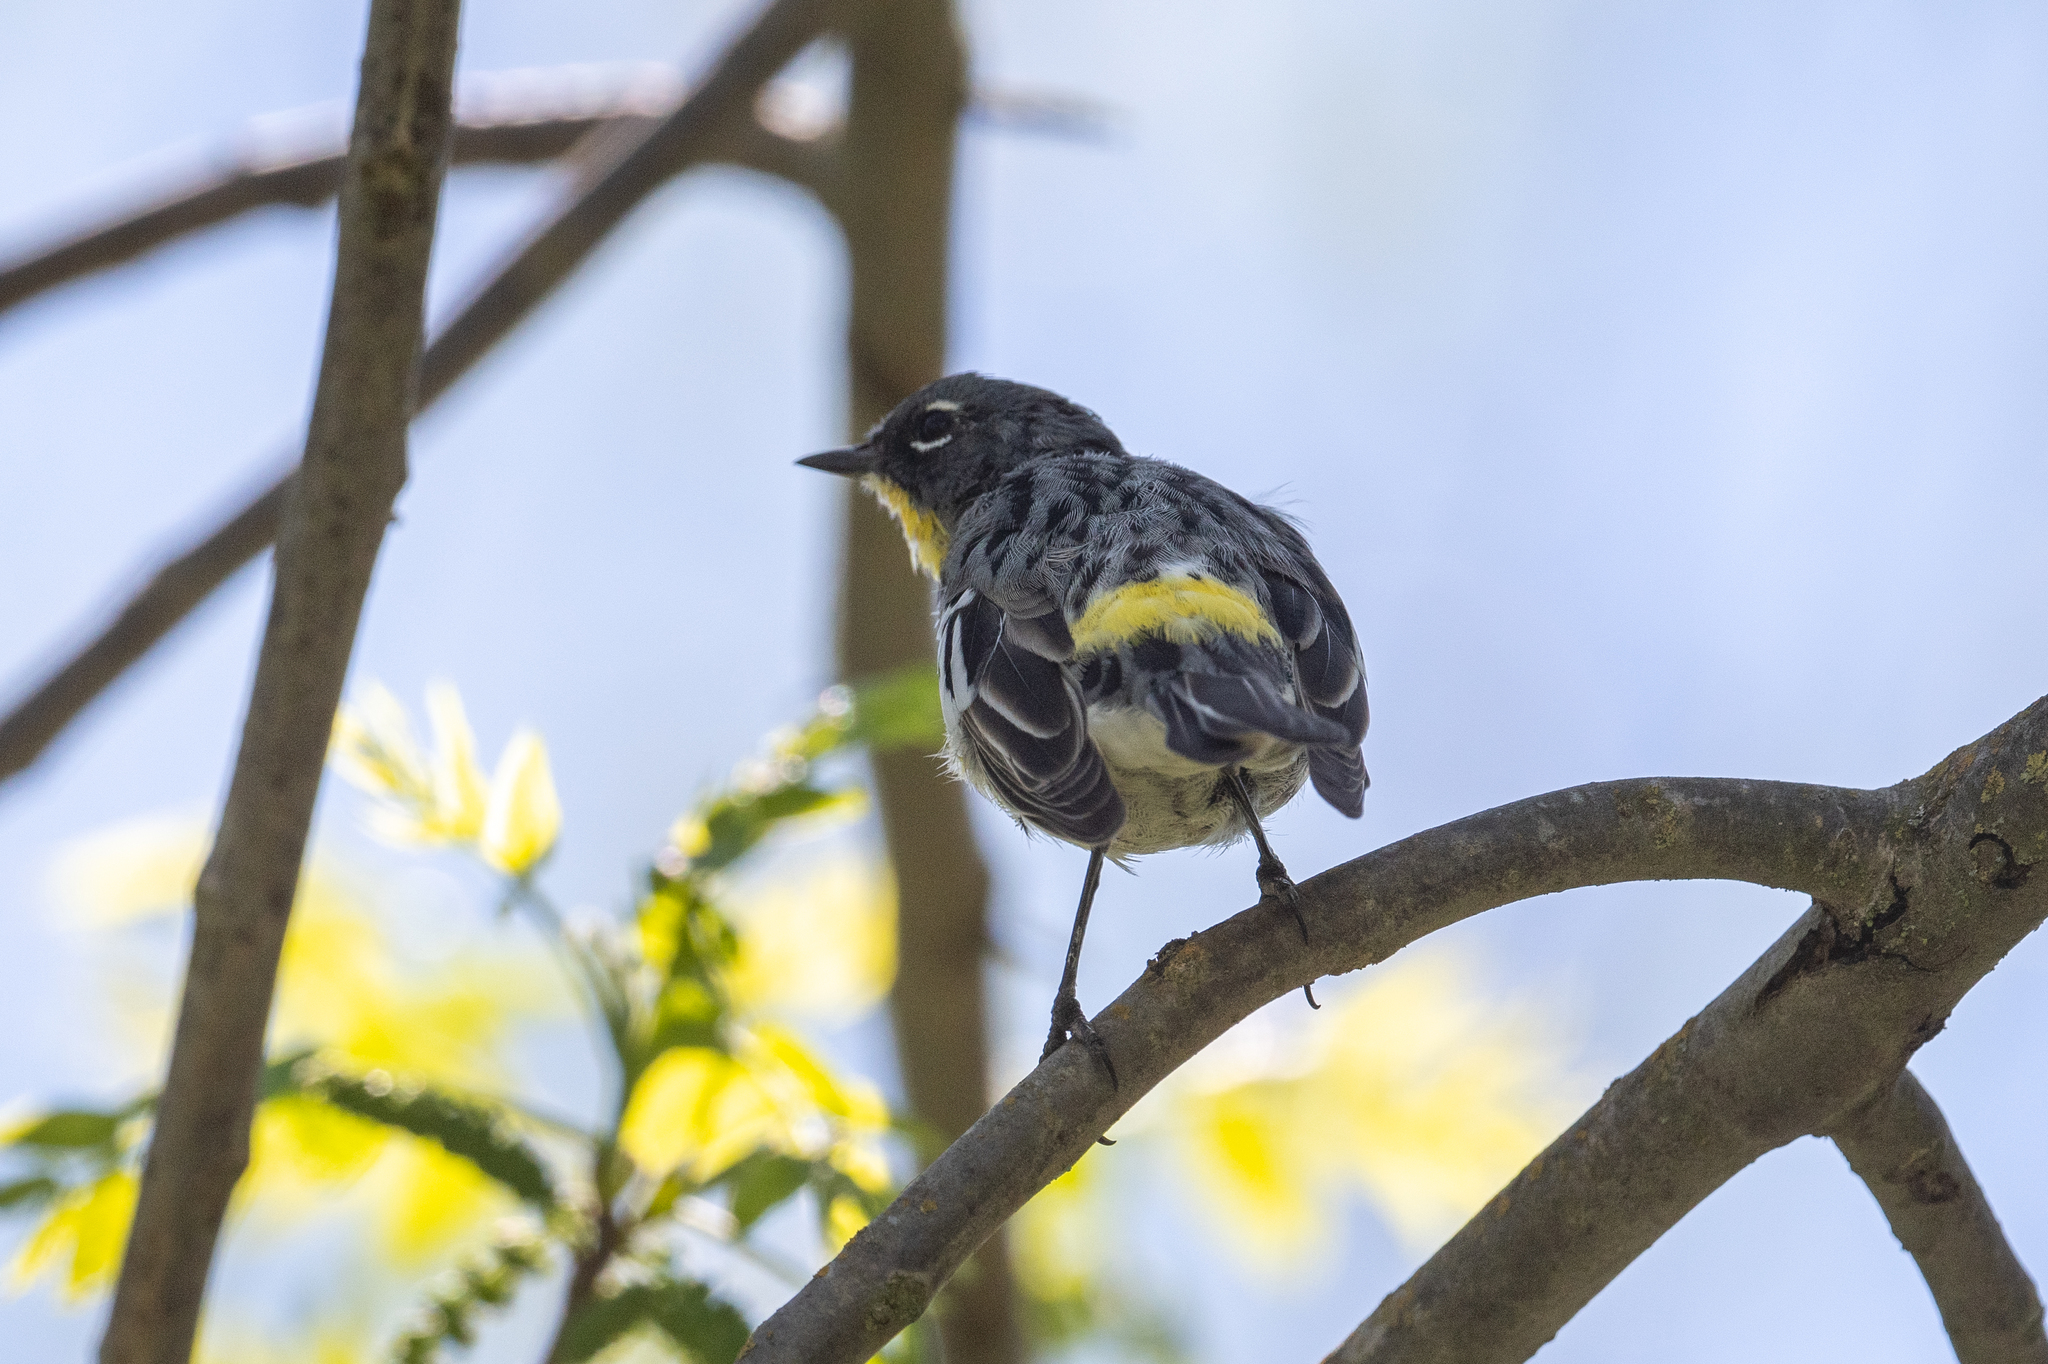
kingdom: Animalia
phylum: Chordata
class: Aves
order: Passeriformes
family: Parulidae
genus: Setophaga
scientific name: Setophaga coronata
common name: Myrtle warbler
